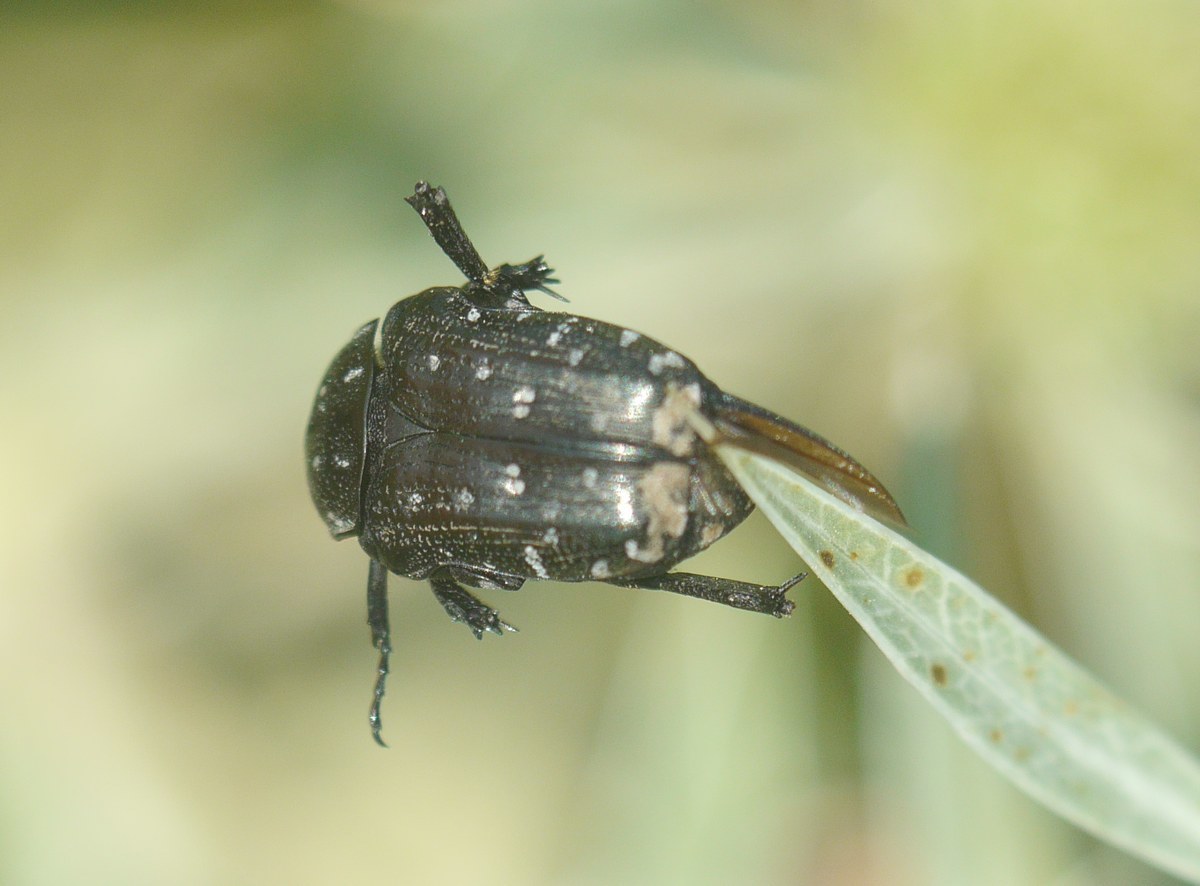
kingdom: Animalia
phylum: Arthropoda
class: Insecta
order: Coleoptera
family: Scarabaeidae
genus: Oxythyrea
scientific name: Oxythyrea funesta
